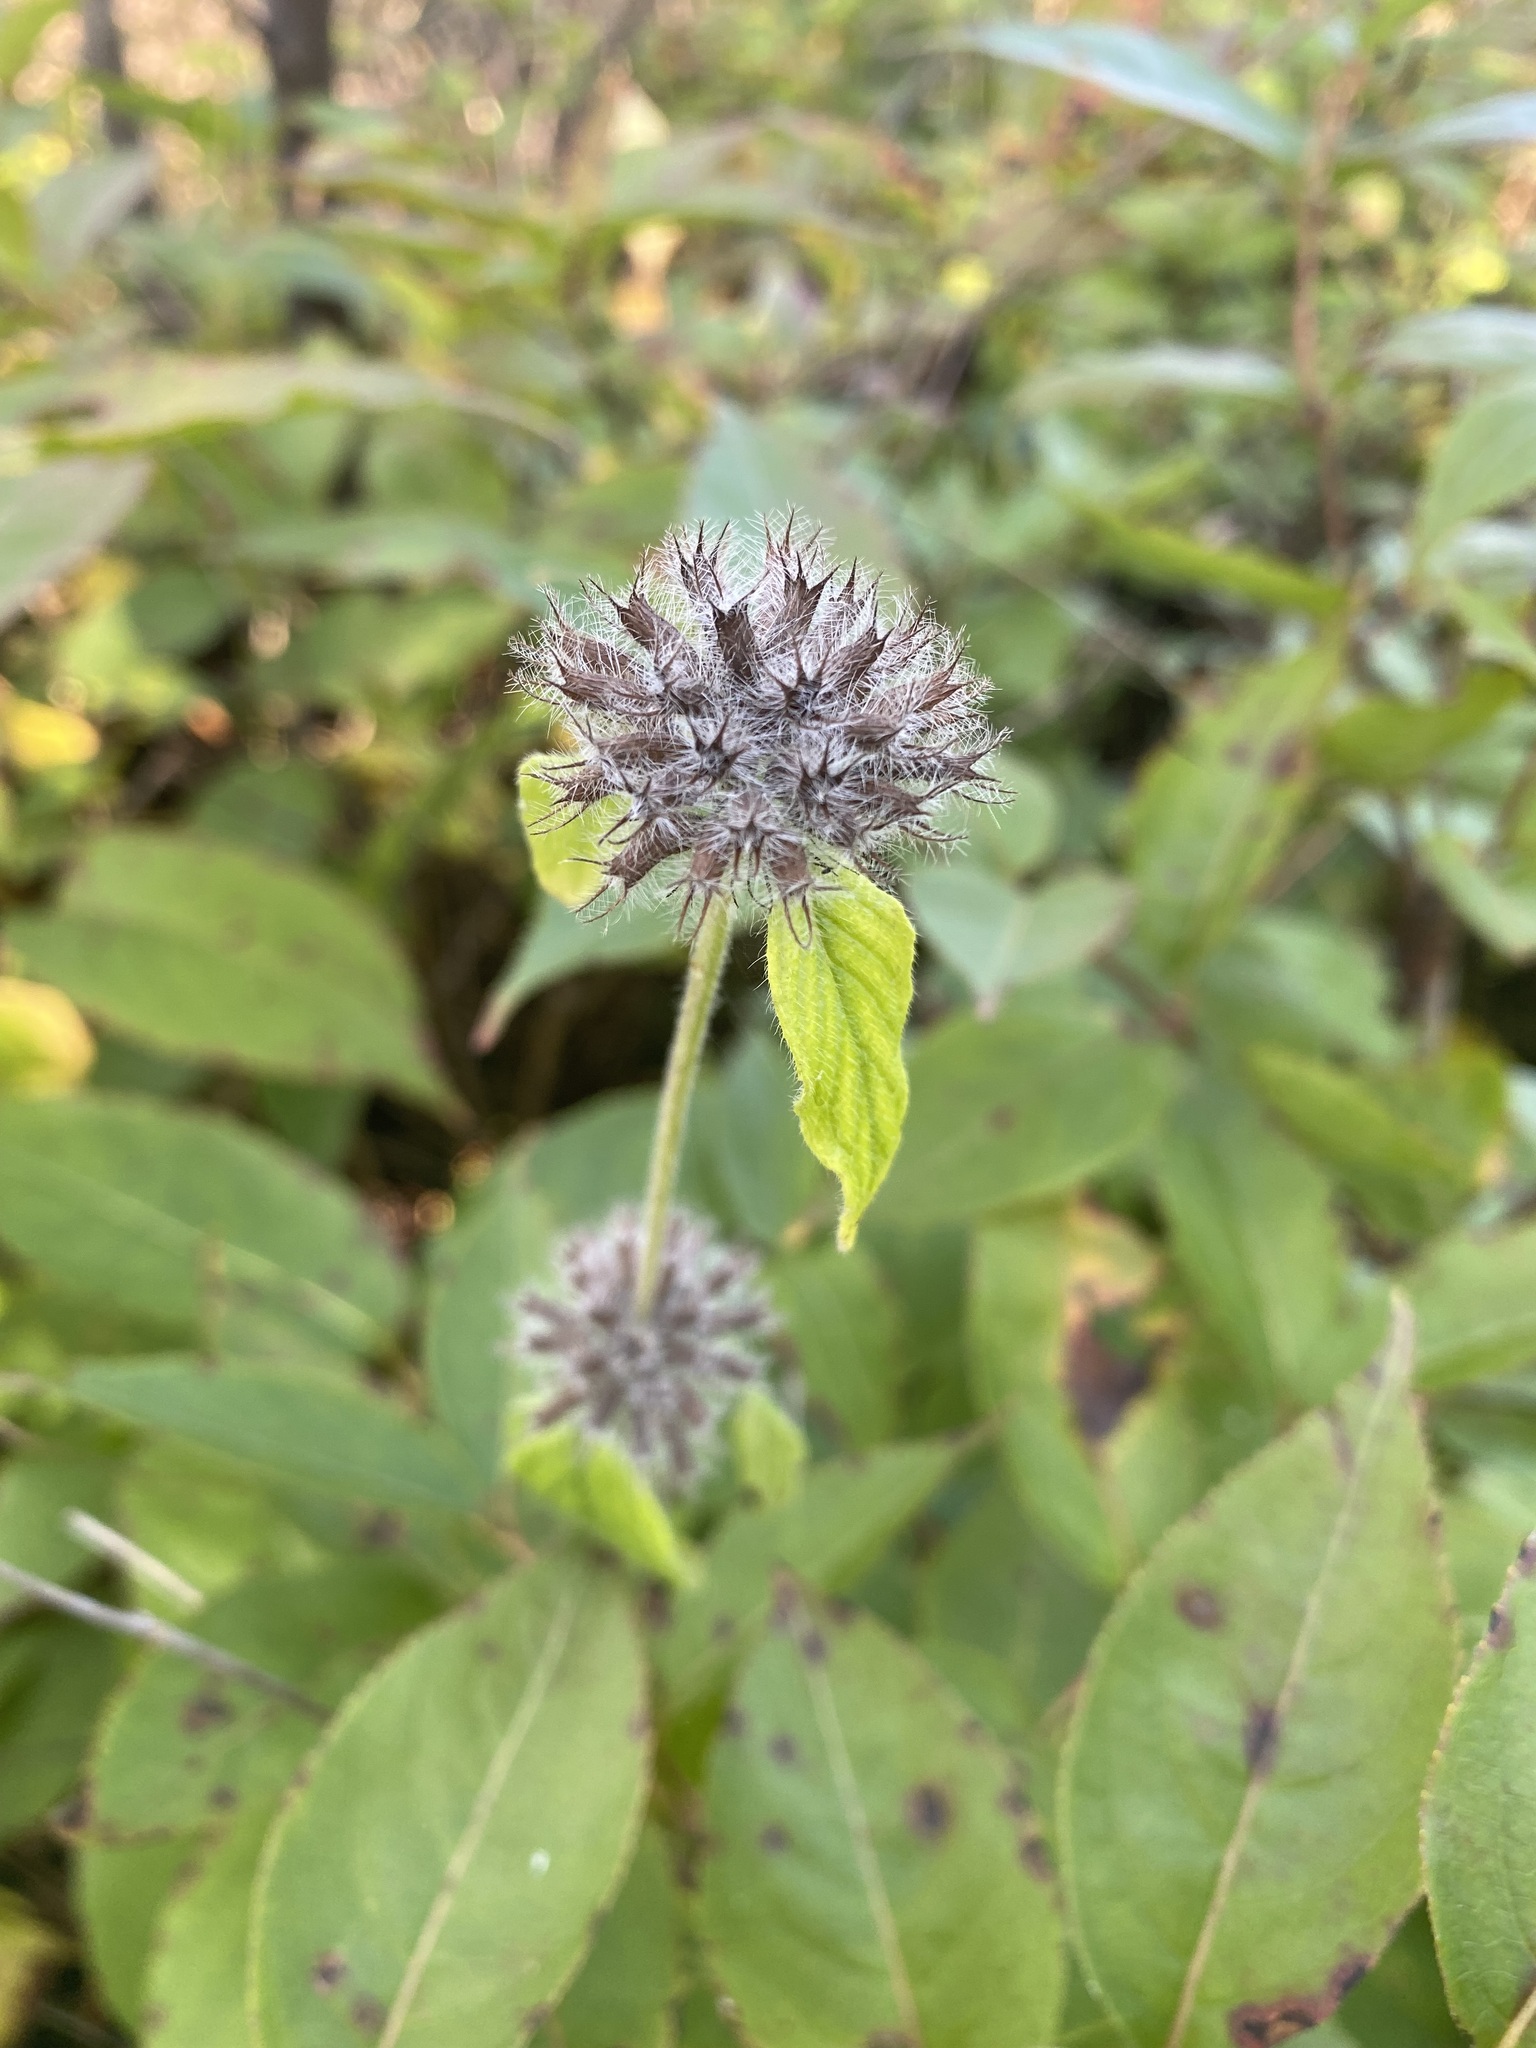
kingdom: Plantae
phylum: Tracheophyta
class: Magnoliopsida
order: Lamiales
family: Lamiaceae
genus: Clinopodium
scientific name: Clinopodium vulgare
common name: Wild basil
